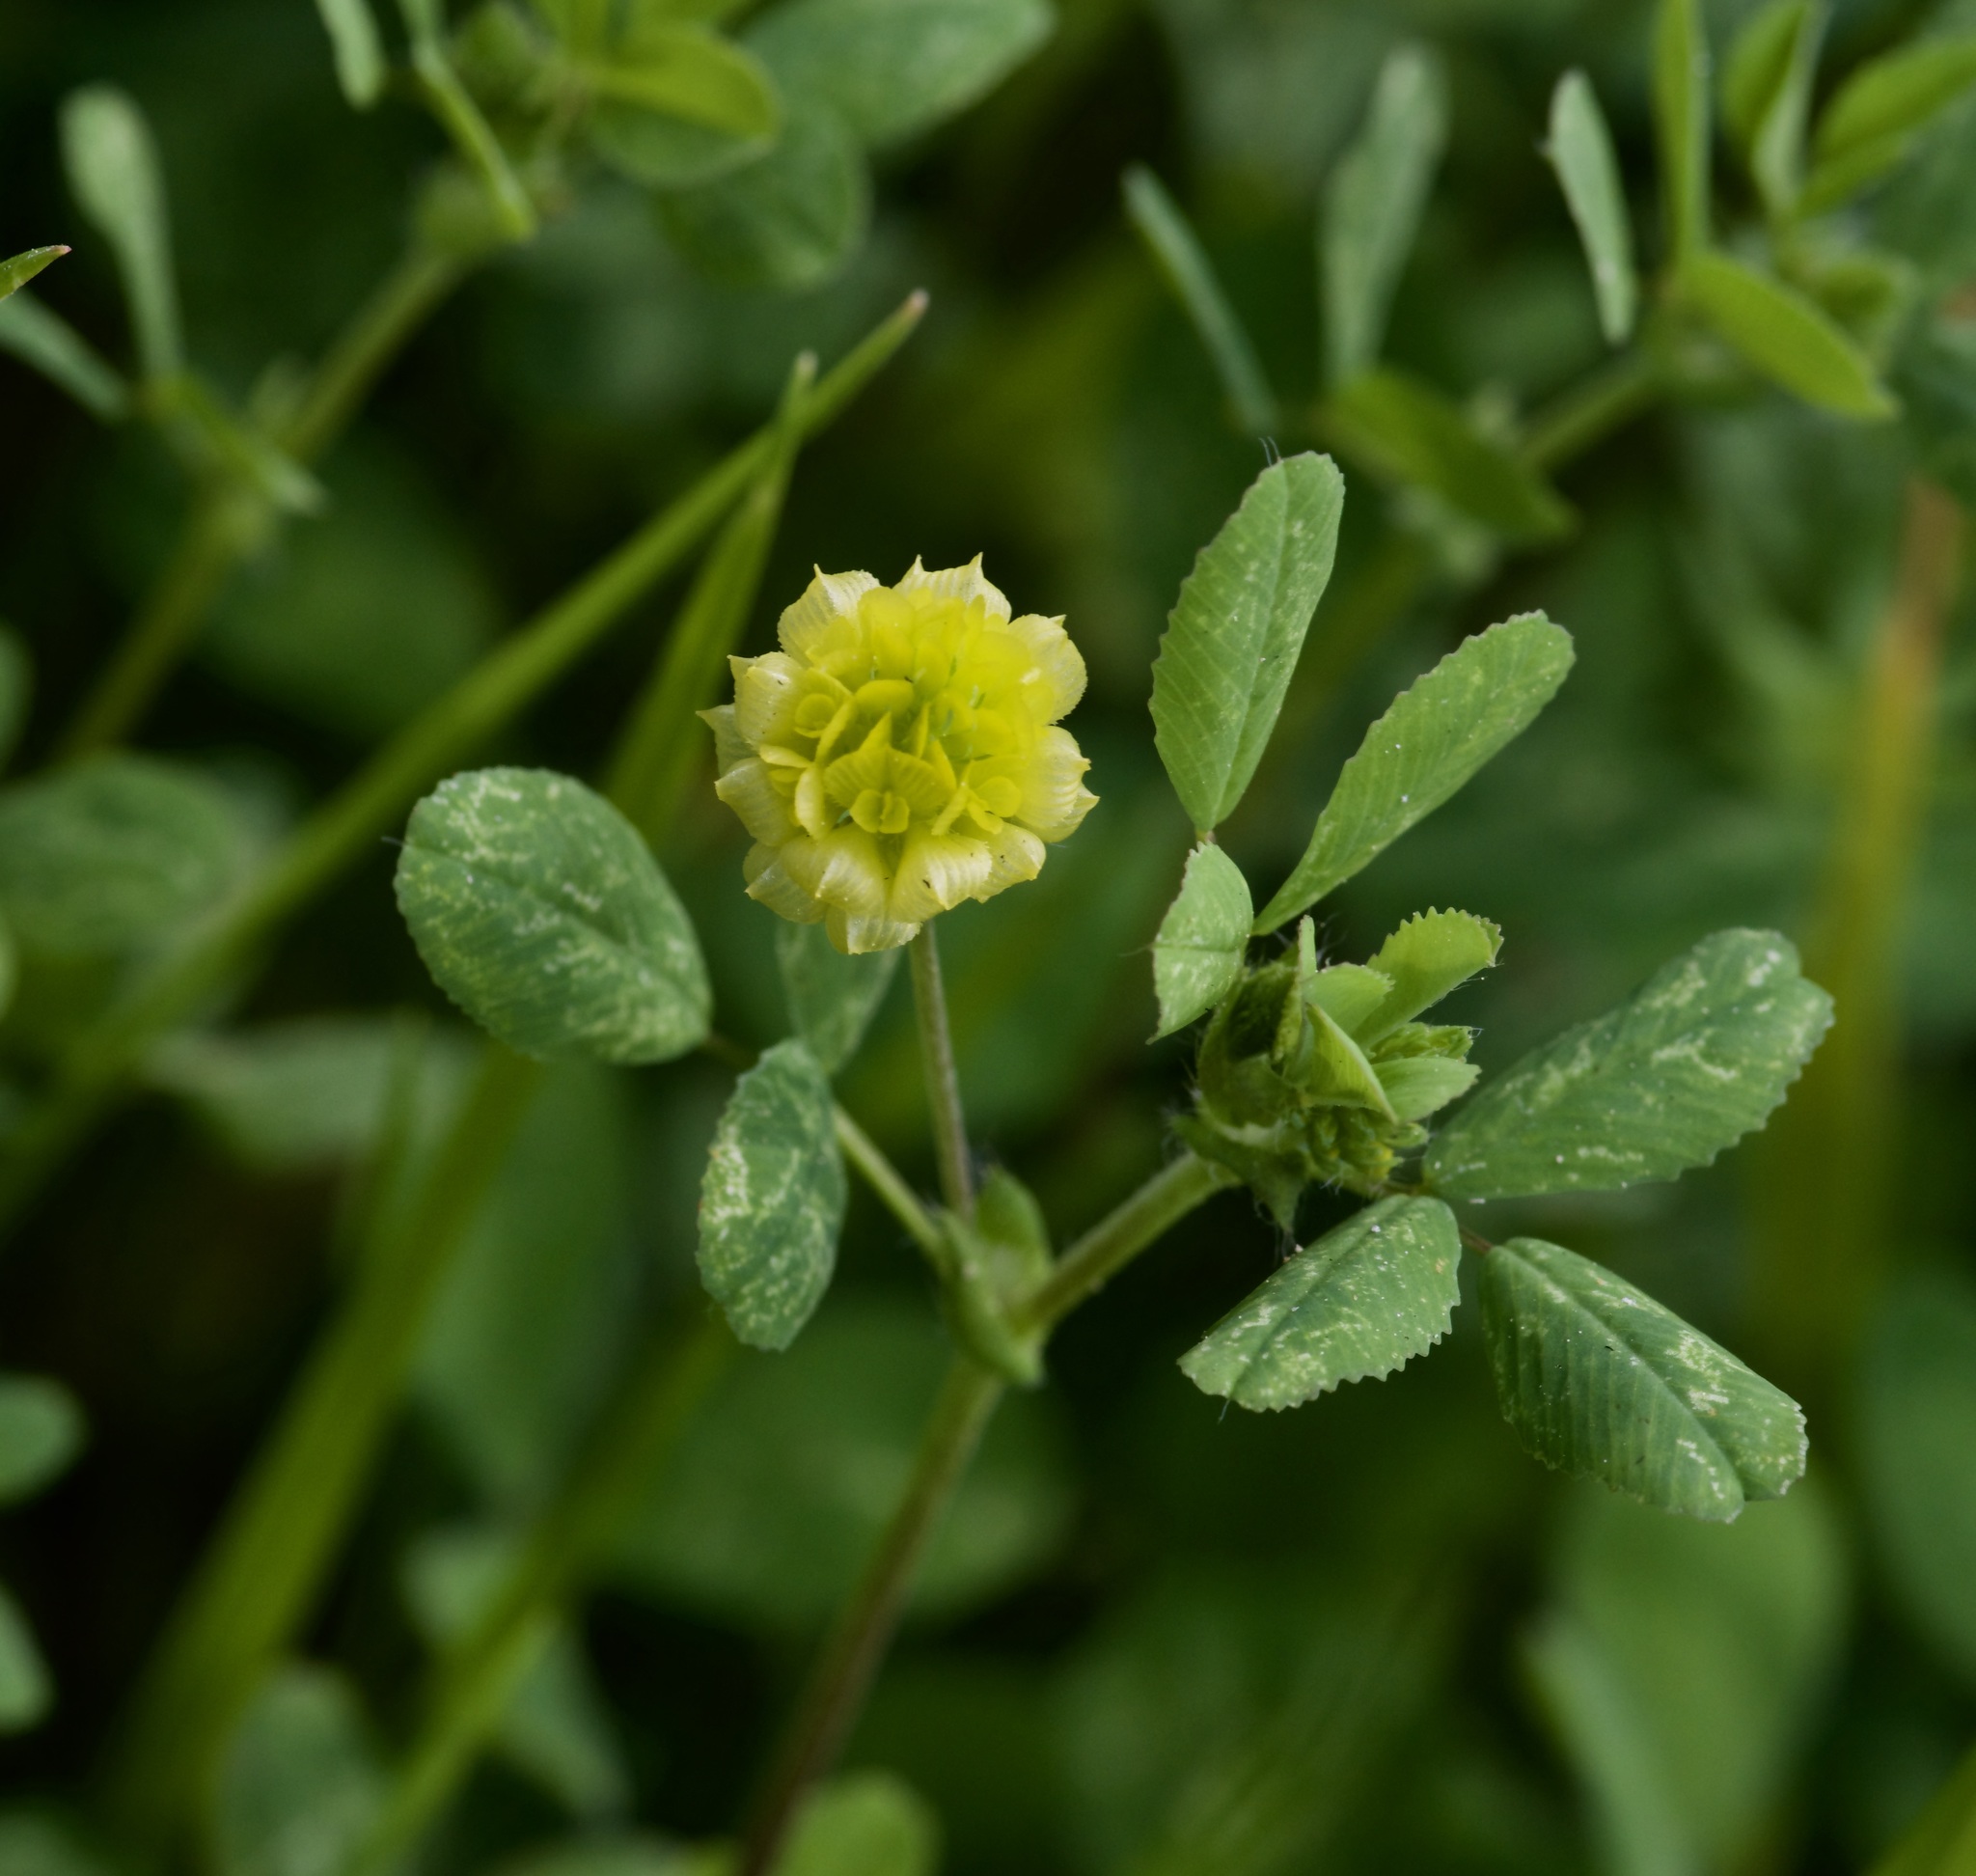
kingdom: Plantae
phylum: Tracheophyta
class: Magnoliopsida
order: Fabales
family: Fabaceae
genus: Trifolium
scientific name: Trifolium campestre
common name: Field clover
